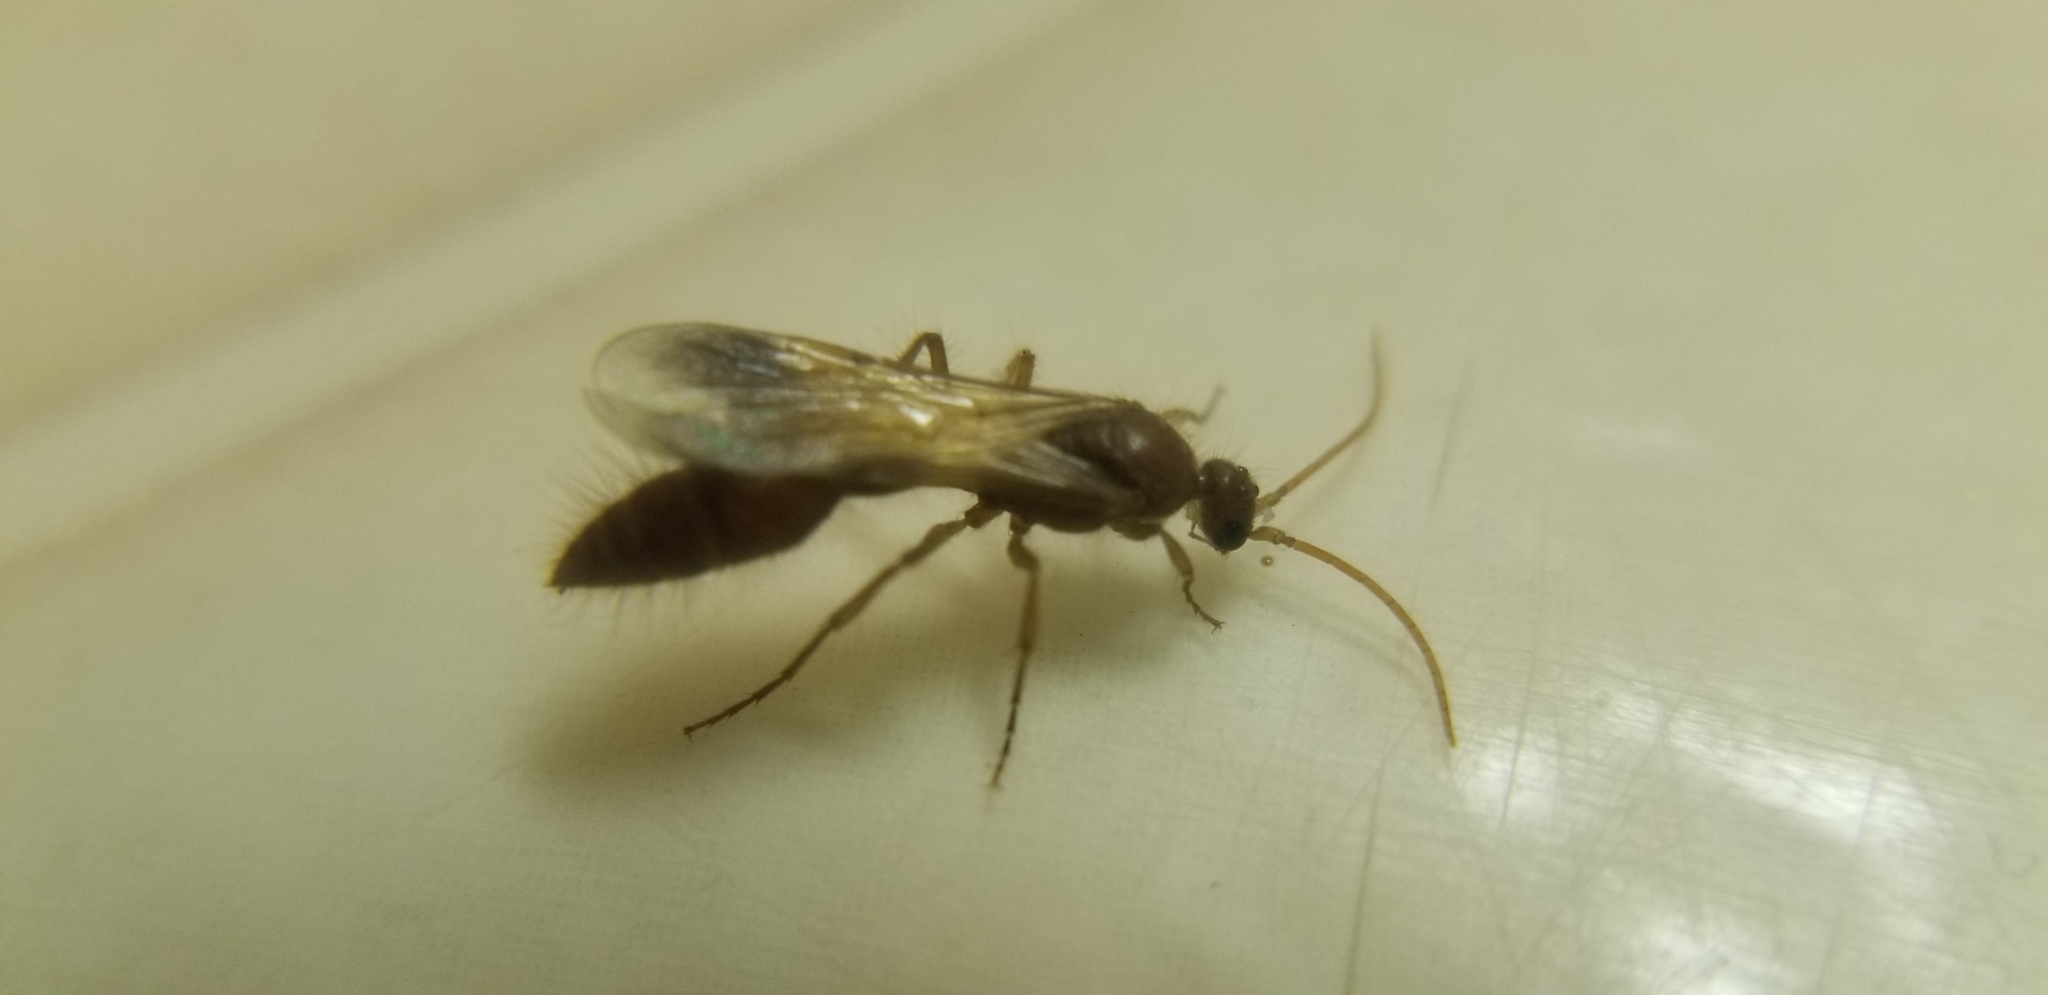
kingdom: Animalia
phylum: Arthropoda
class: Insecta
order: Hymenoptera
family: Chyphotidae
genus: Chyphotes
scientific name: Chyphotes
